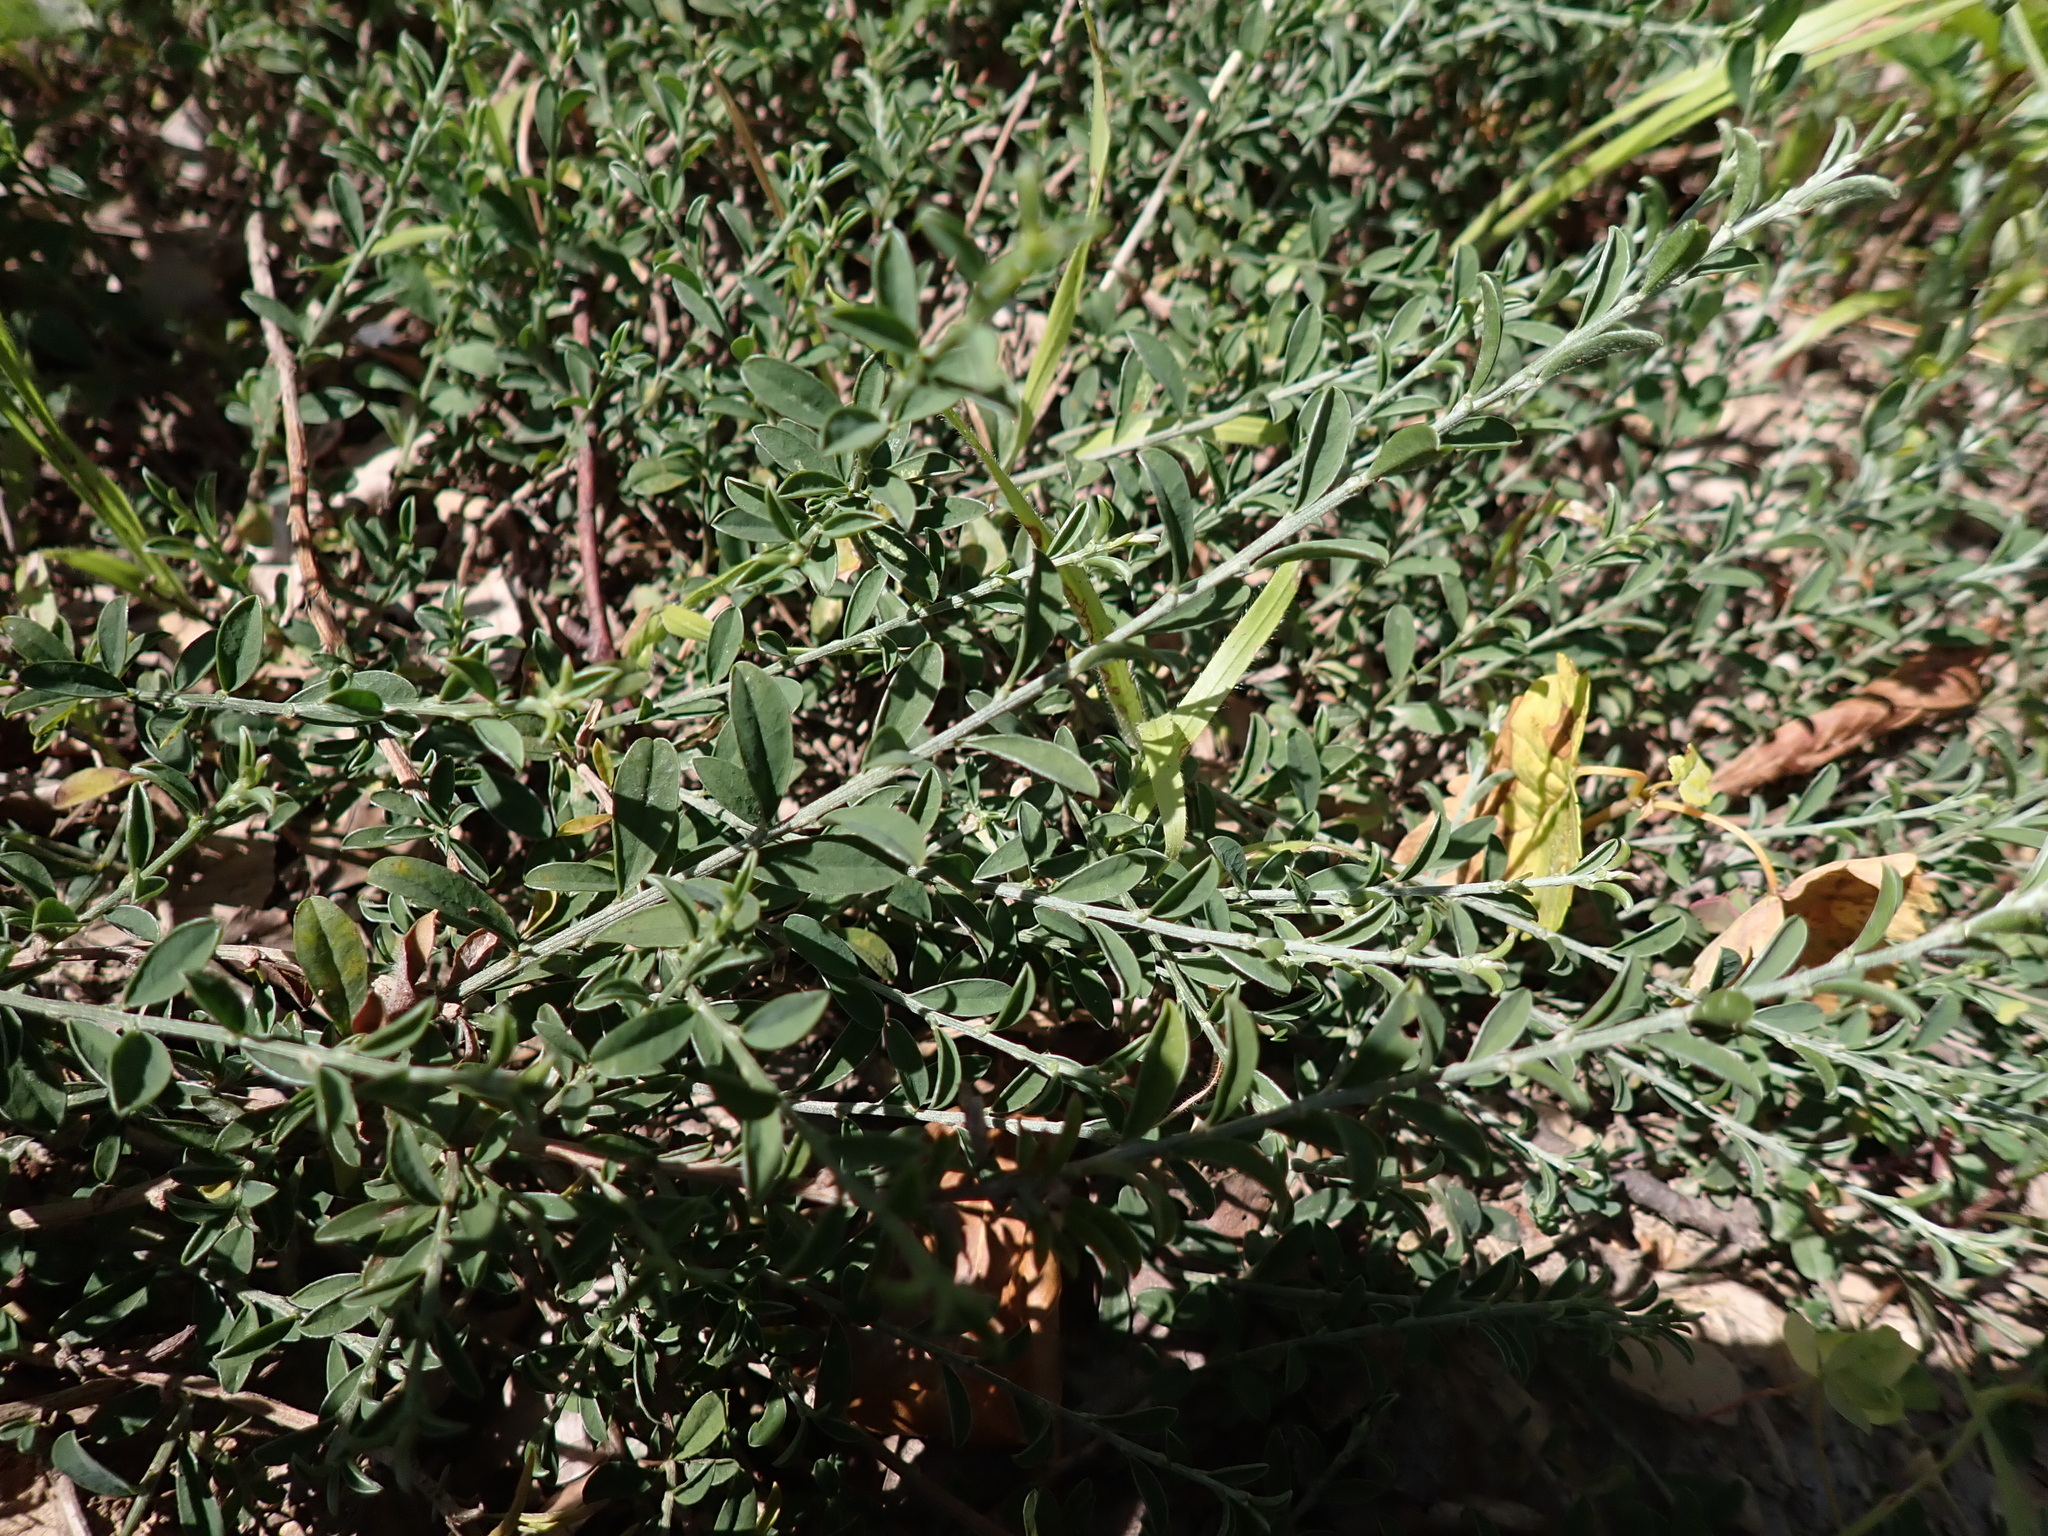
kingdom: Plantae
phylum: Tracheophyta
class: Magnoliopsida
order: Fabales
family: Fabaceae
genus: Genista
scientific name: Genista pilosa
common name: Hairy greenweed
